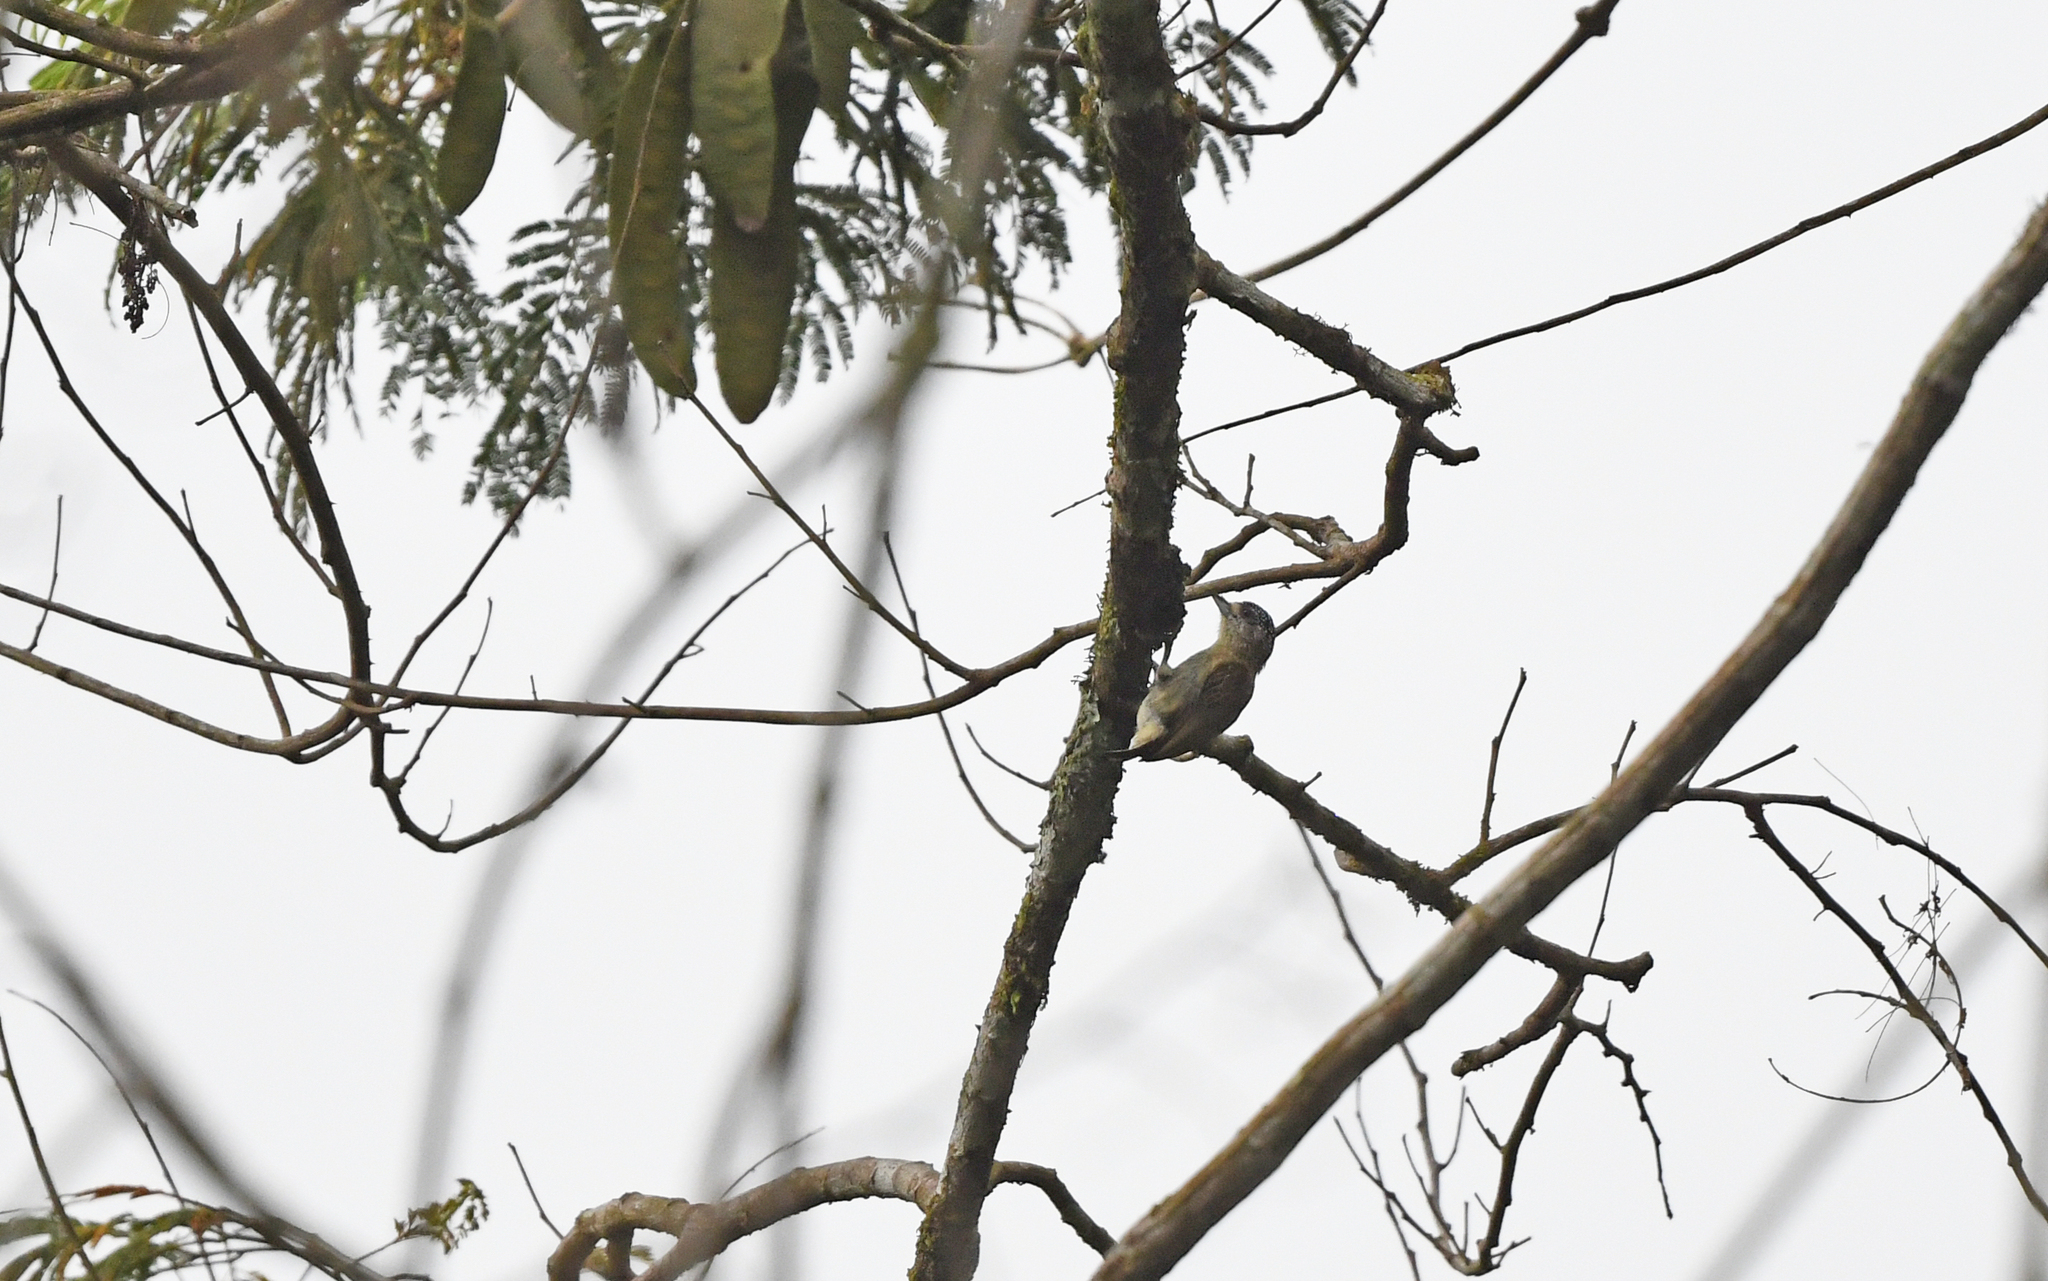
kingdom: Animalia
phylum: Chordata
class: Aves
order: Piciformes
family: Picidae
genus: Picumnus
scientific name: Picumnus subtilis
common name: Fine-barred piculet
